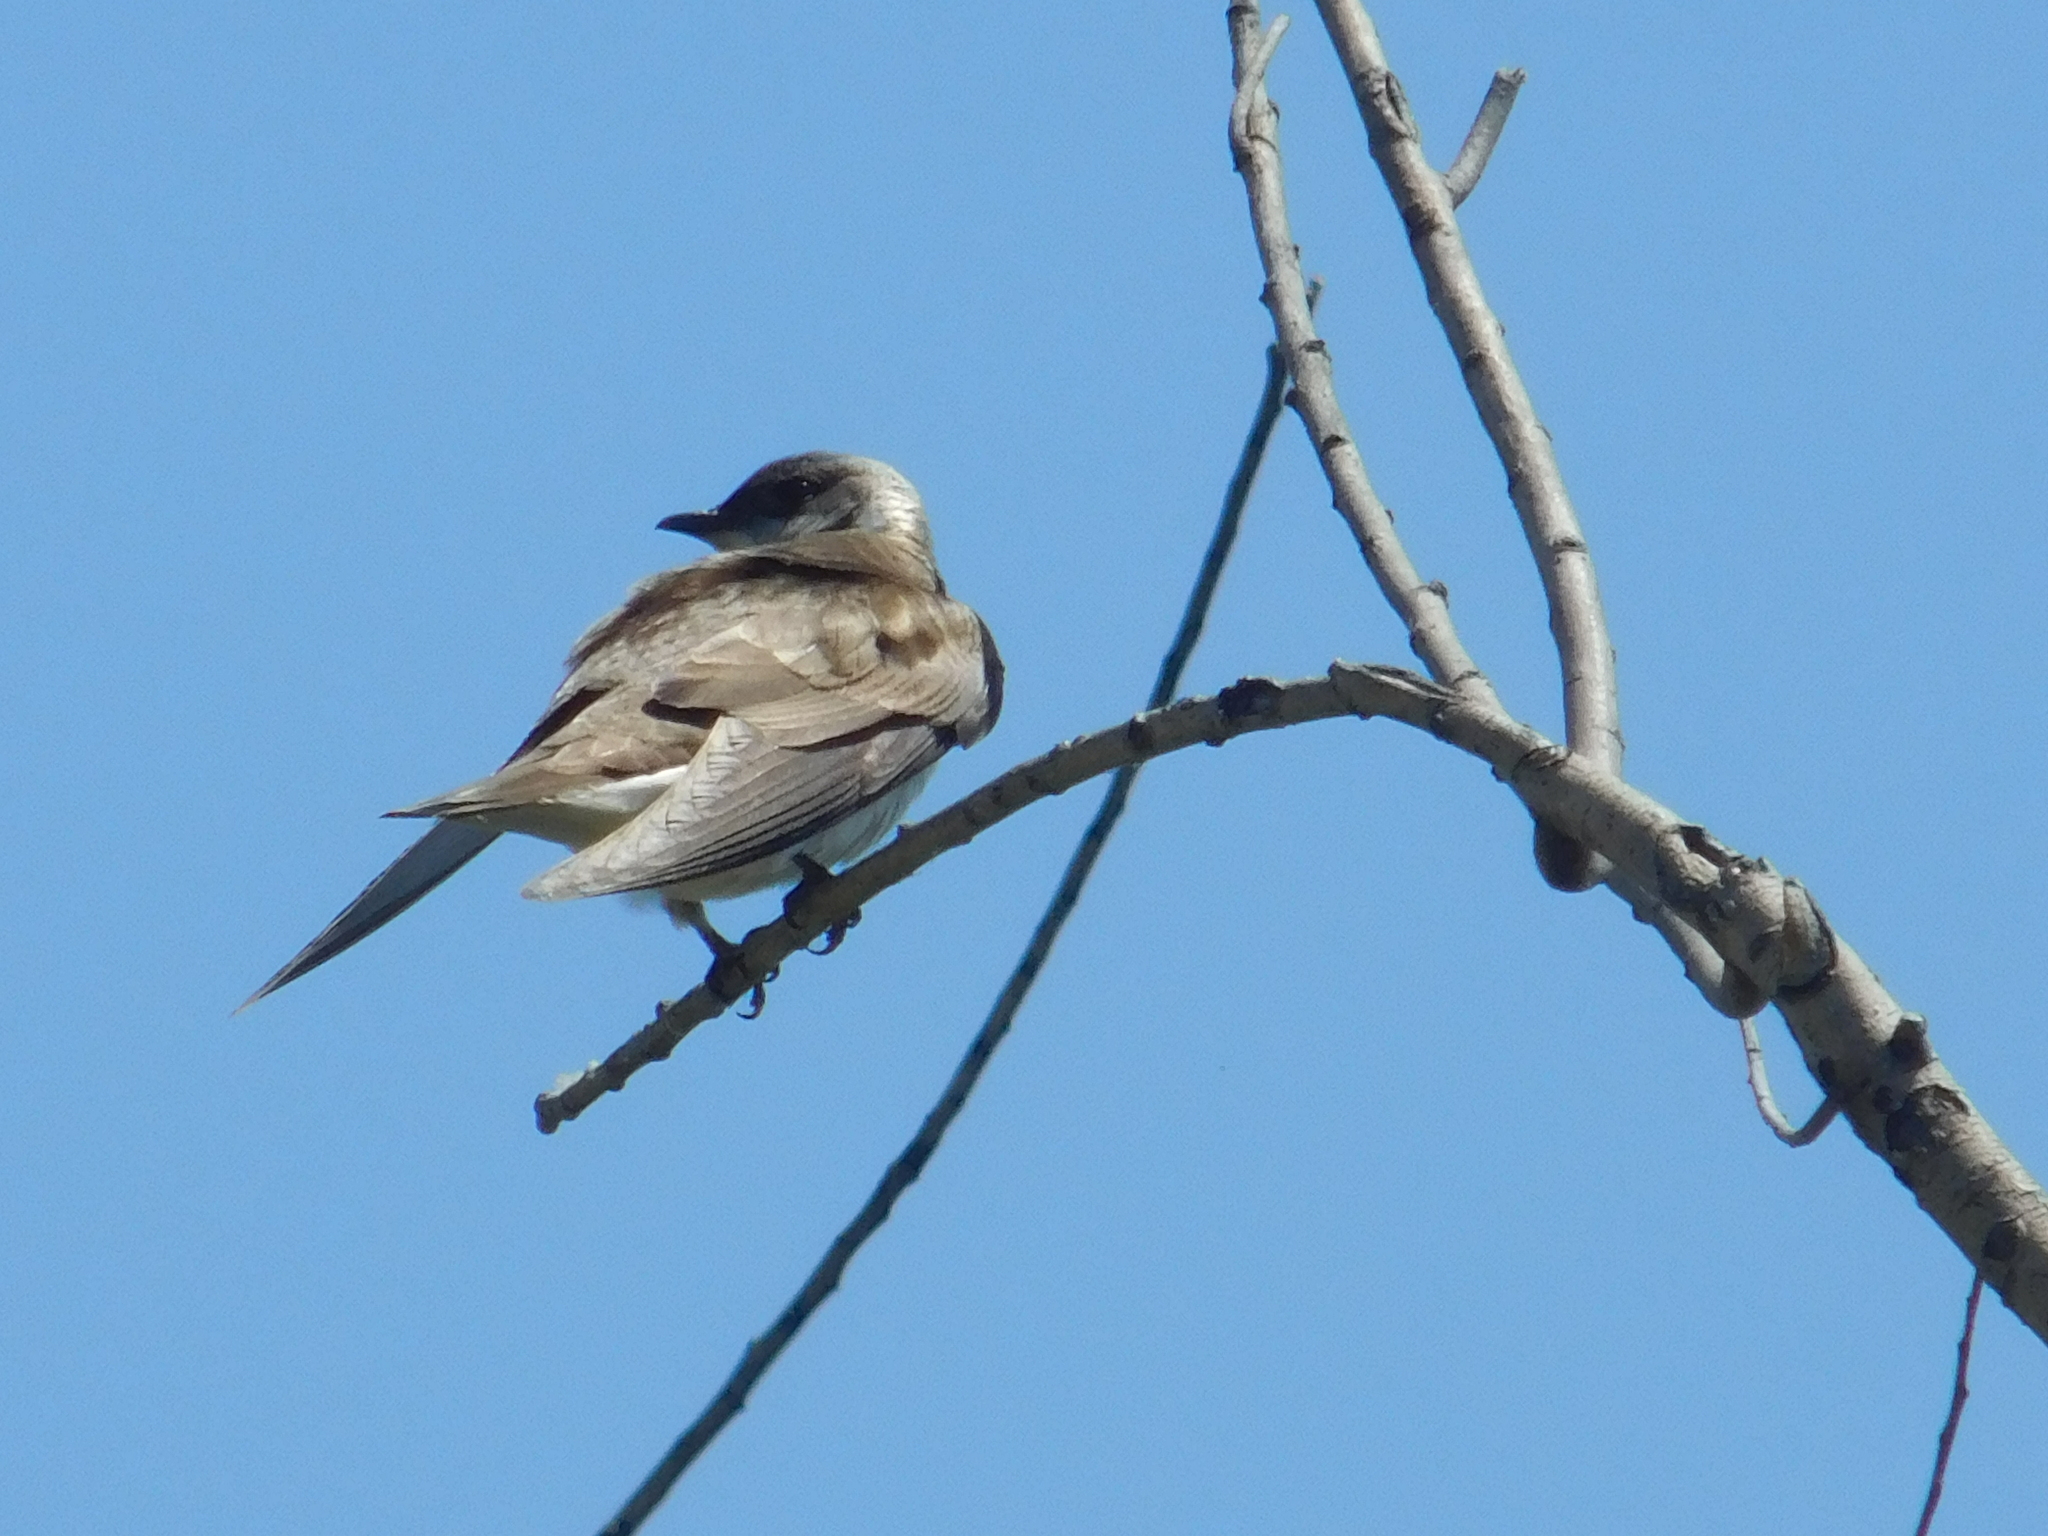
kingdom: Animalia
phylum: Chordata
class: Aves
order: Passeriformes
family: Hirundinidae
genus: Progne
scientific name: Progne tapera
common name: Brown-chested martin
